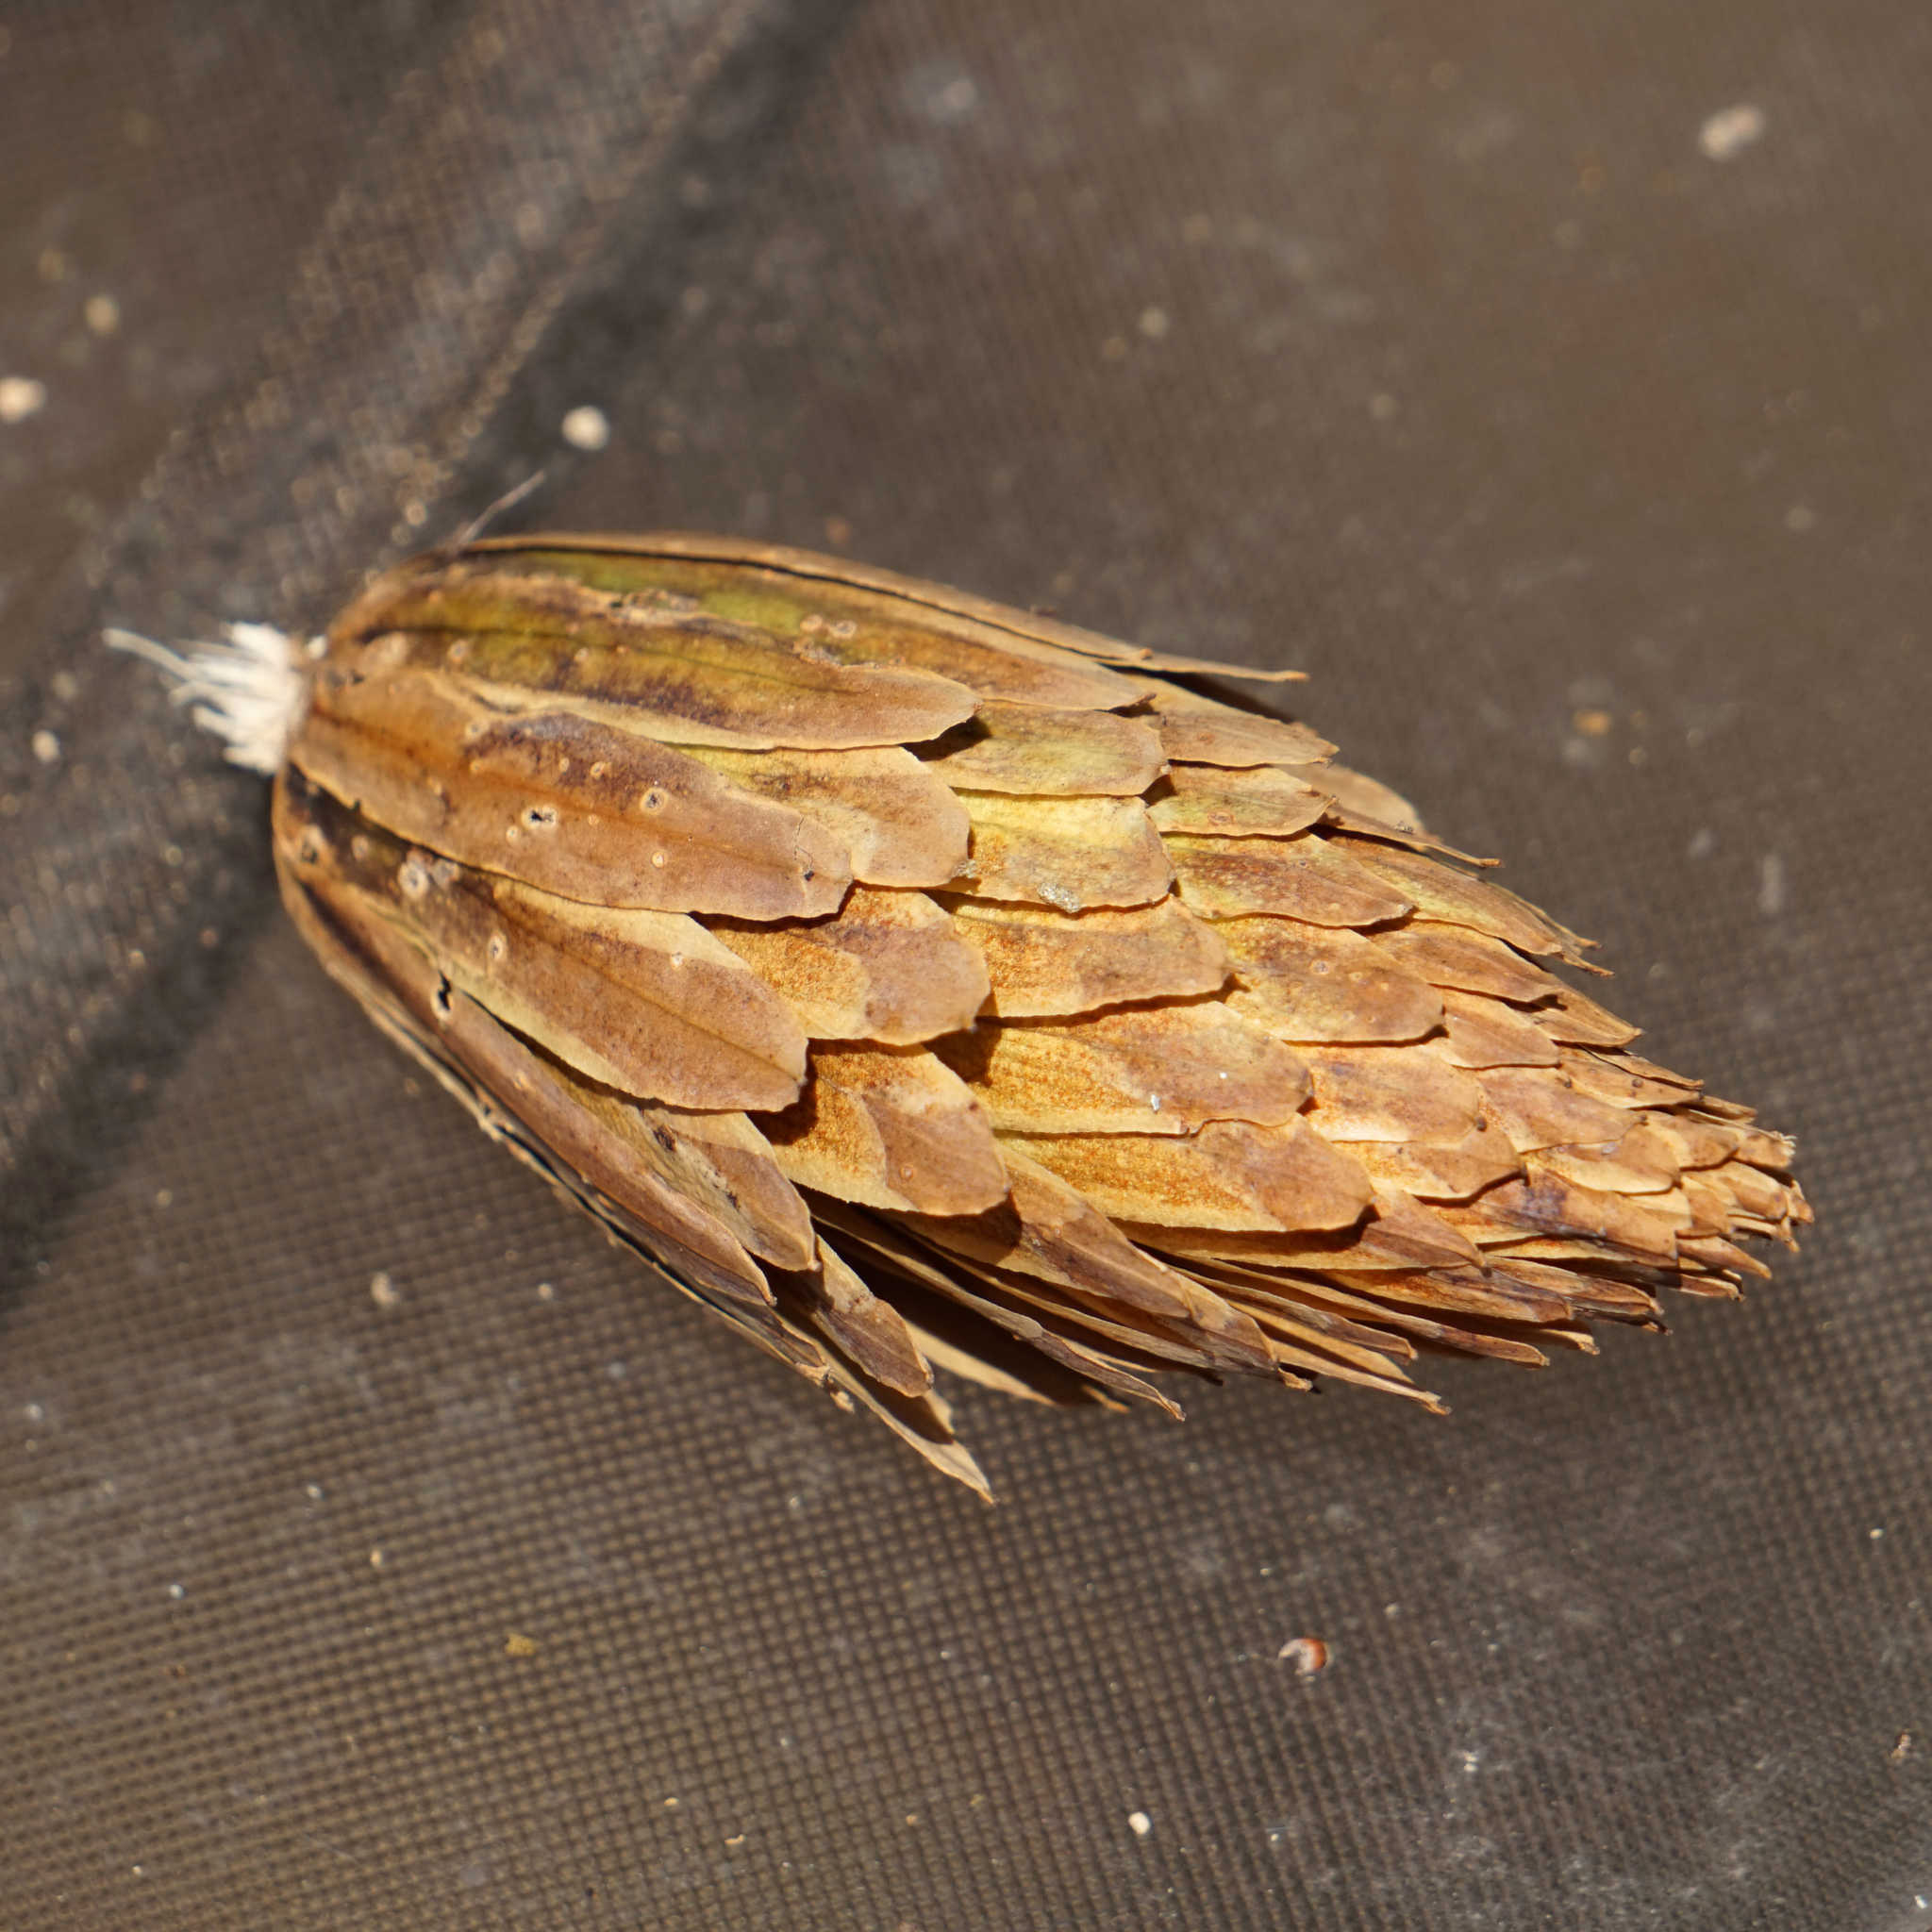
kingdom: Plantae
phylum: Tracheophyta
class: Magnoliopsida
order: Magnoliales
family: Magnoliaceae
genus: Liriodendron
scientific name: Liriodendron tulipifera
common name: Tulip tree
